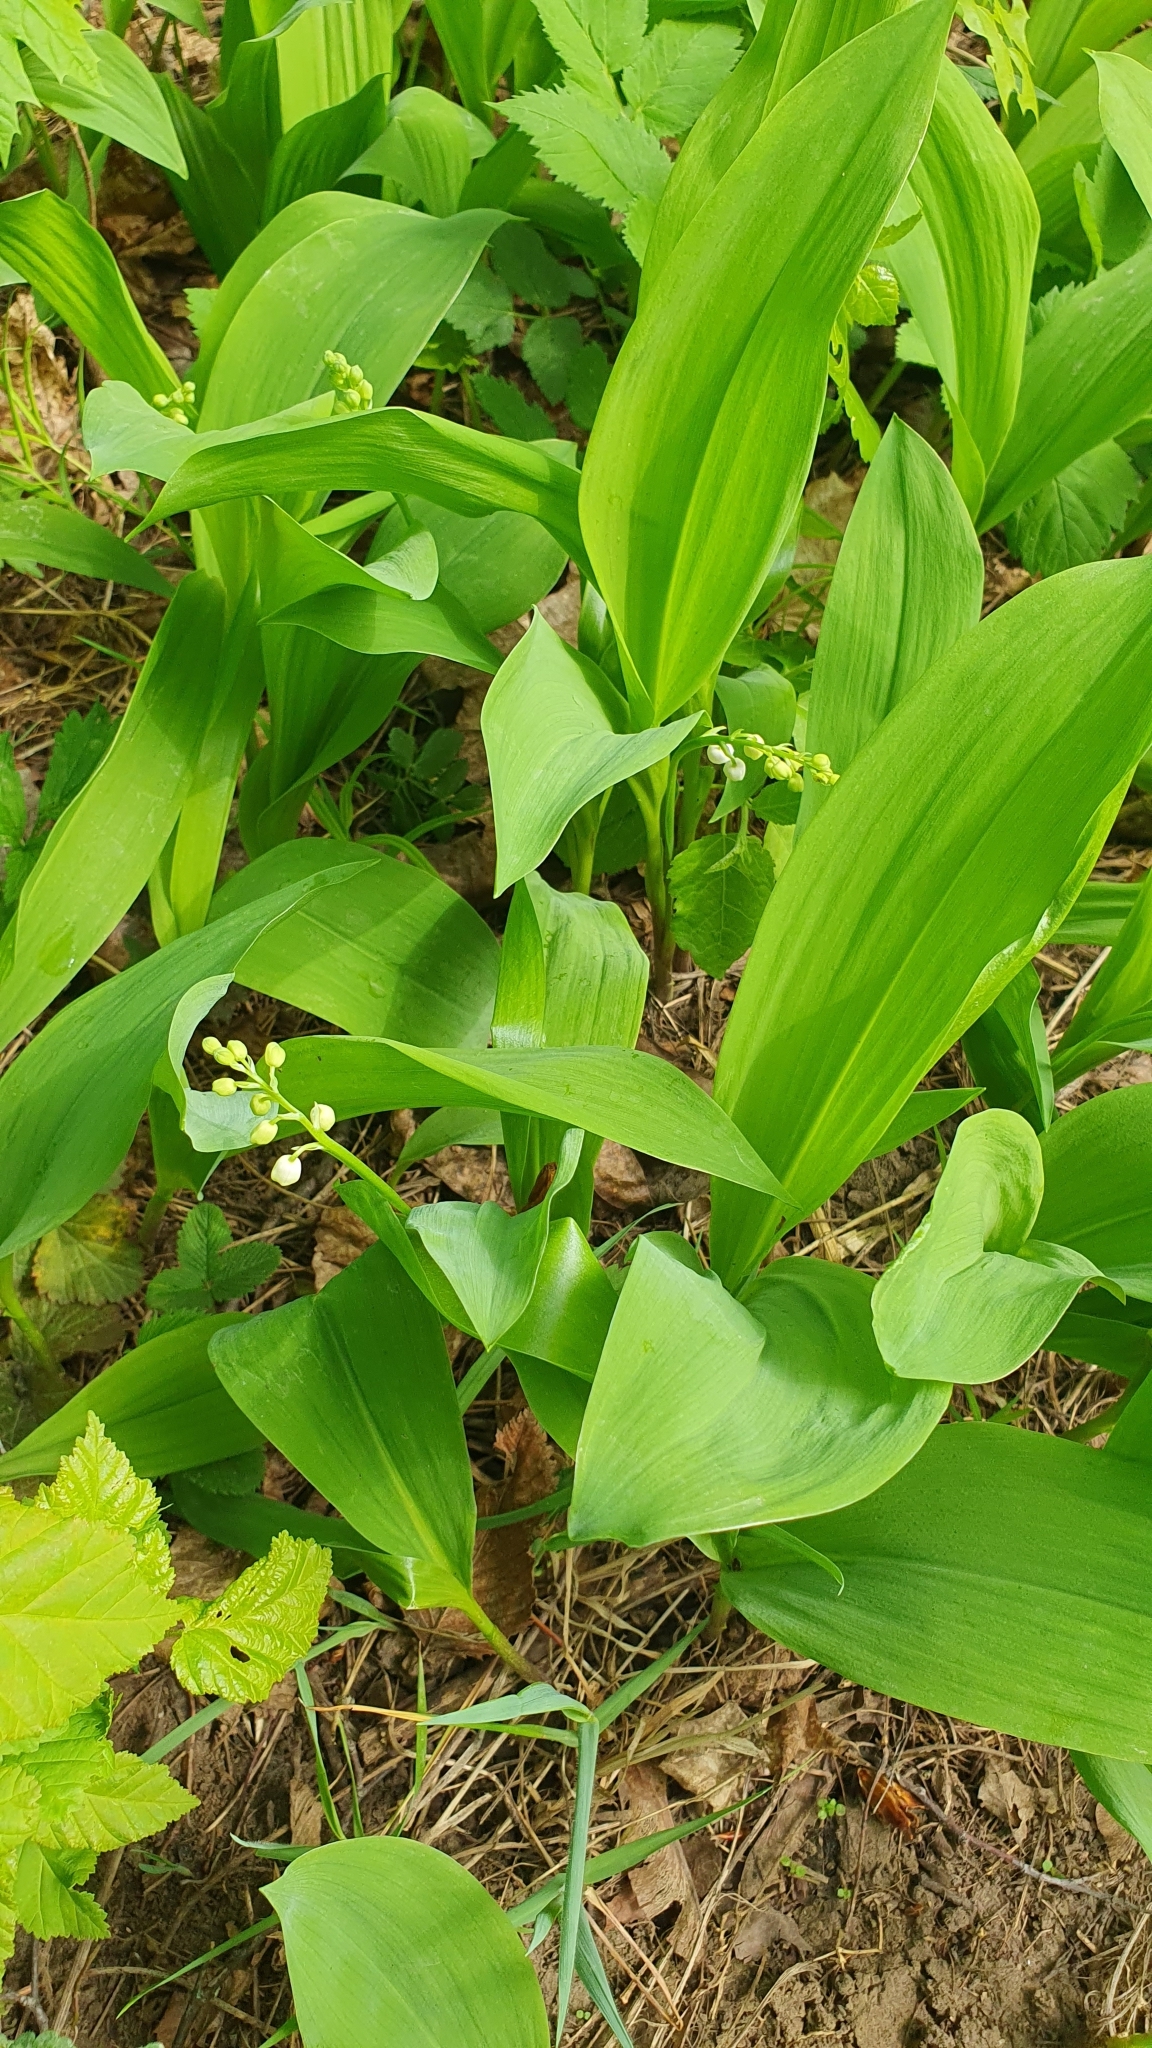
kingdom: Plantae
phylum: Tracheophyta
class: Liliopsida
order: Asparagales
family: Asparagaceae
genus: Convallaria
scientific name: Convallaria majalis
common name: Lily-of-the-valley
